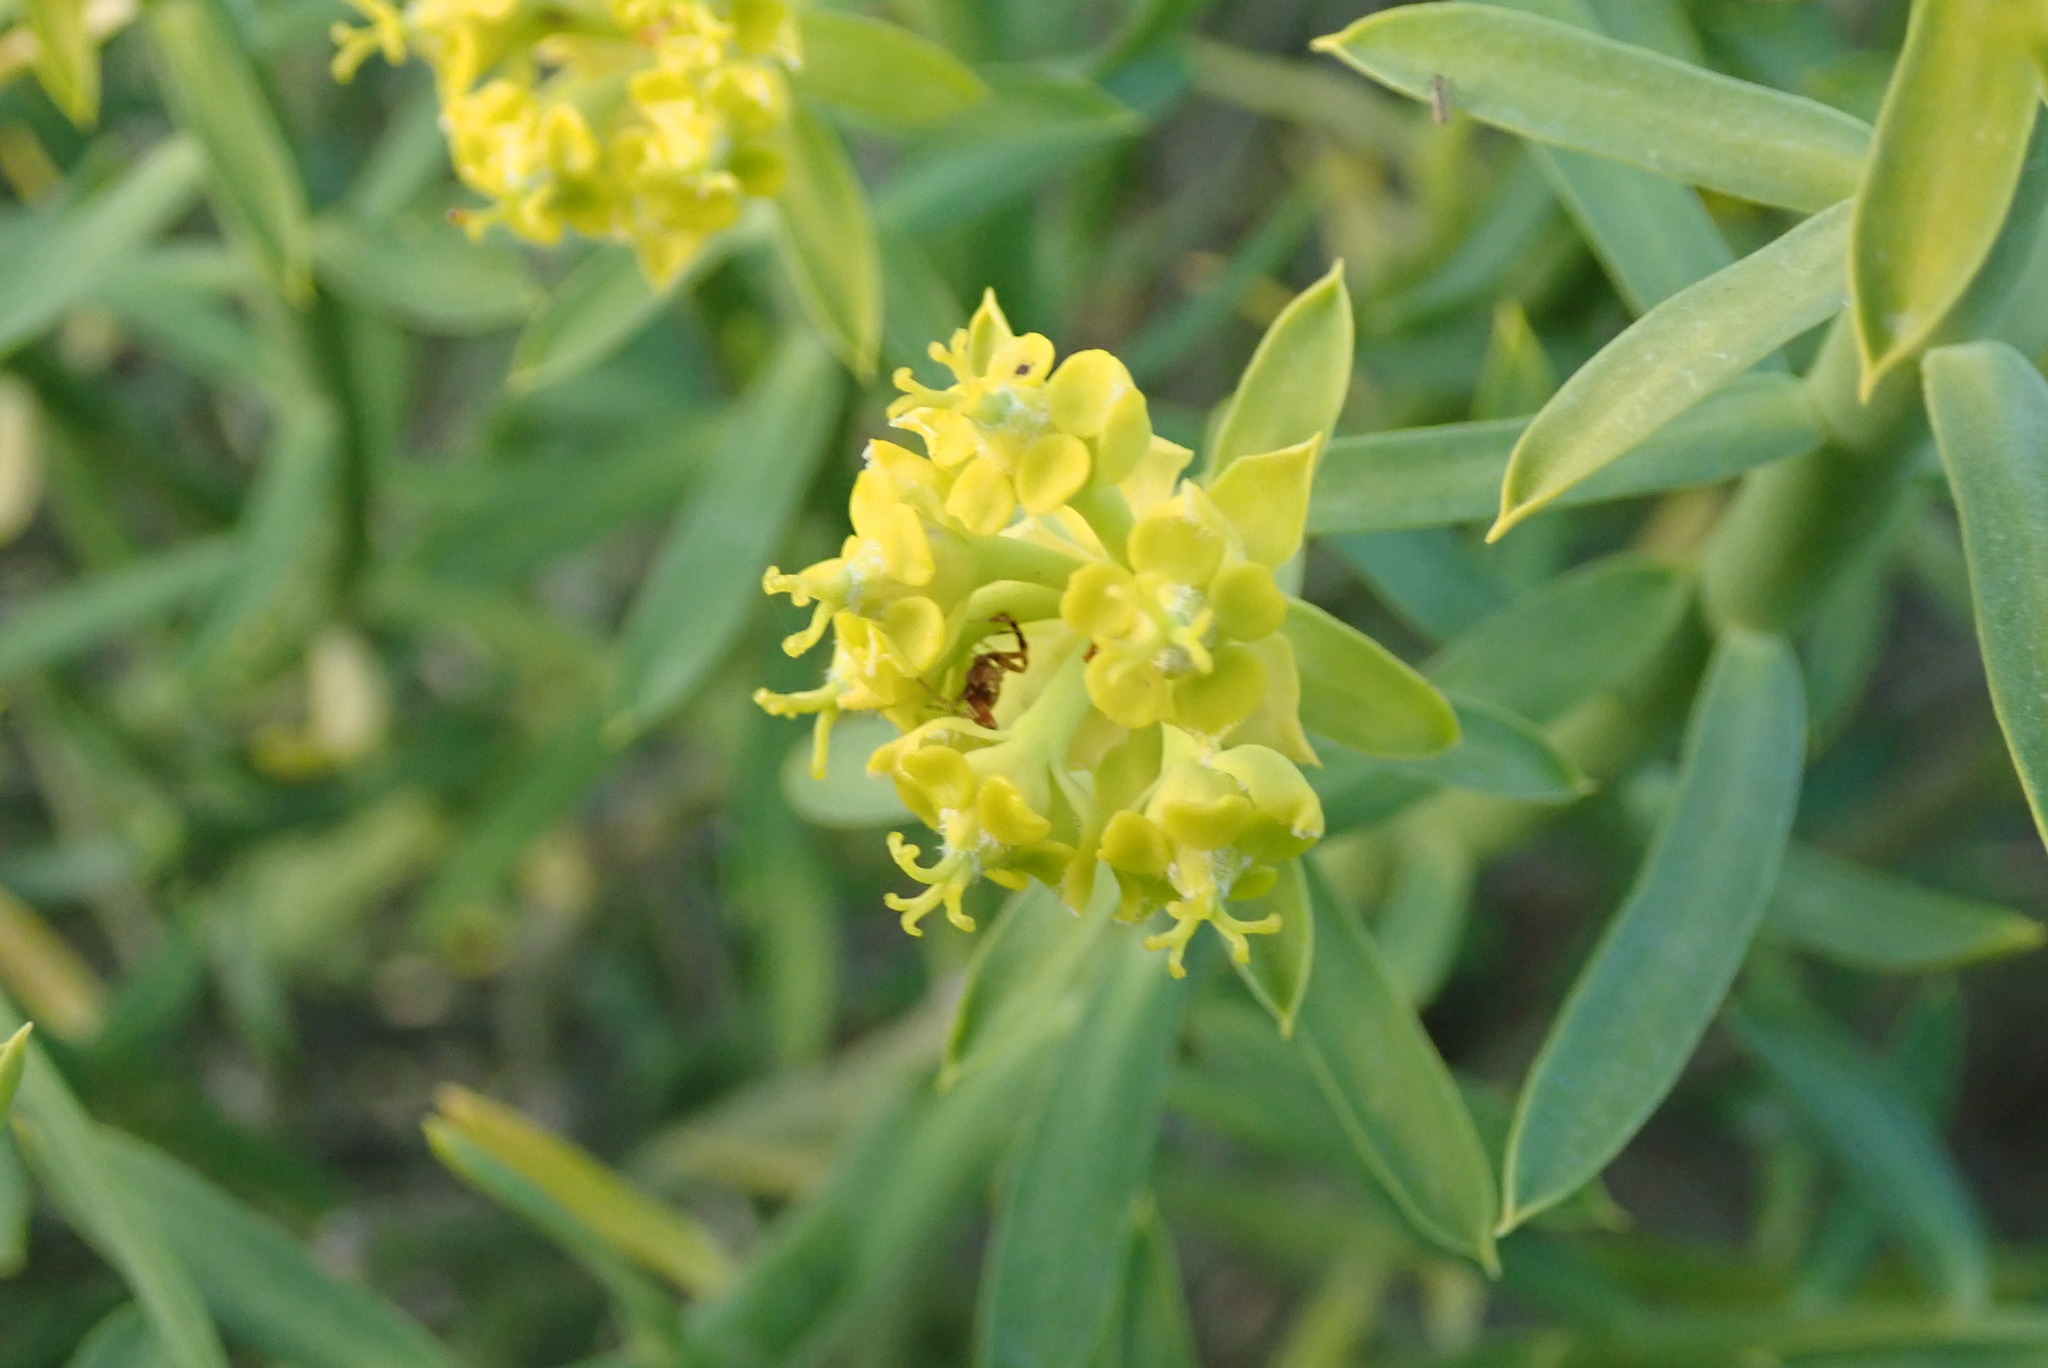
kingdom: Plantae
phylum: Tracheophyta
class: Magnoliopsida
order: Malpighiales
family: Euphorbiaceae
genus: Euphorbia
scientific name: Euphorbia mauritanica
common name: Jackal's-food
